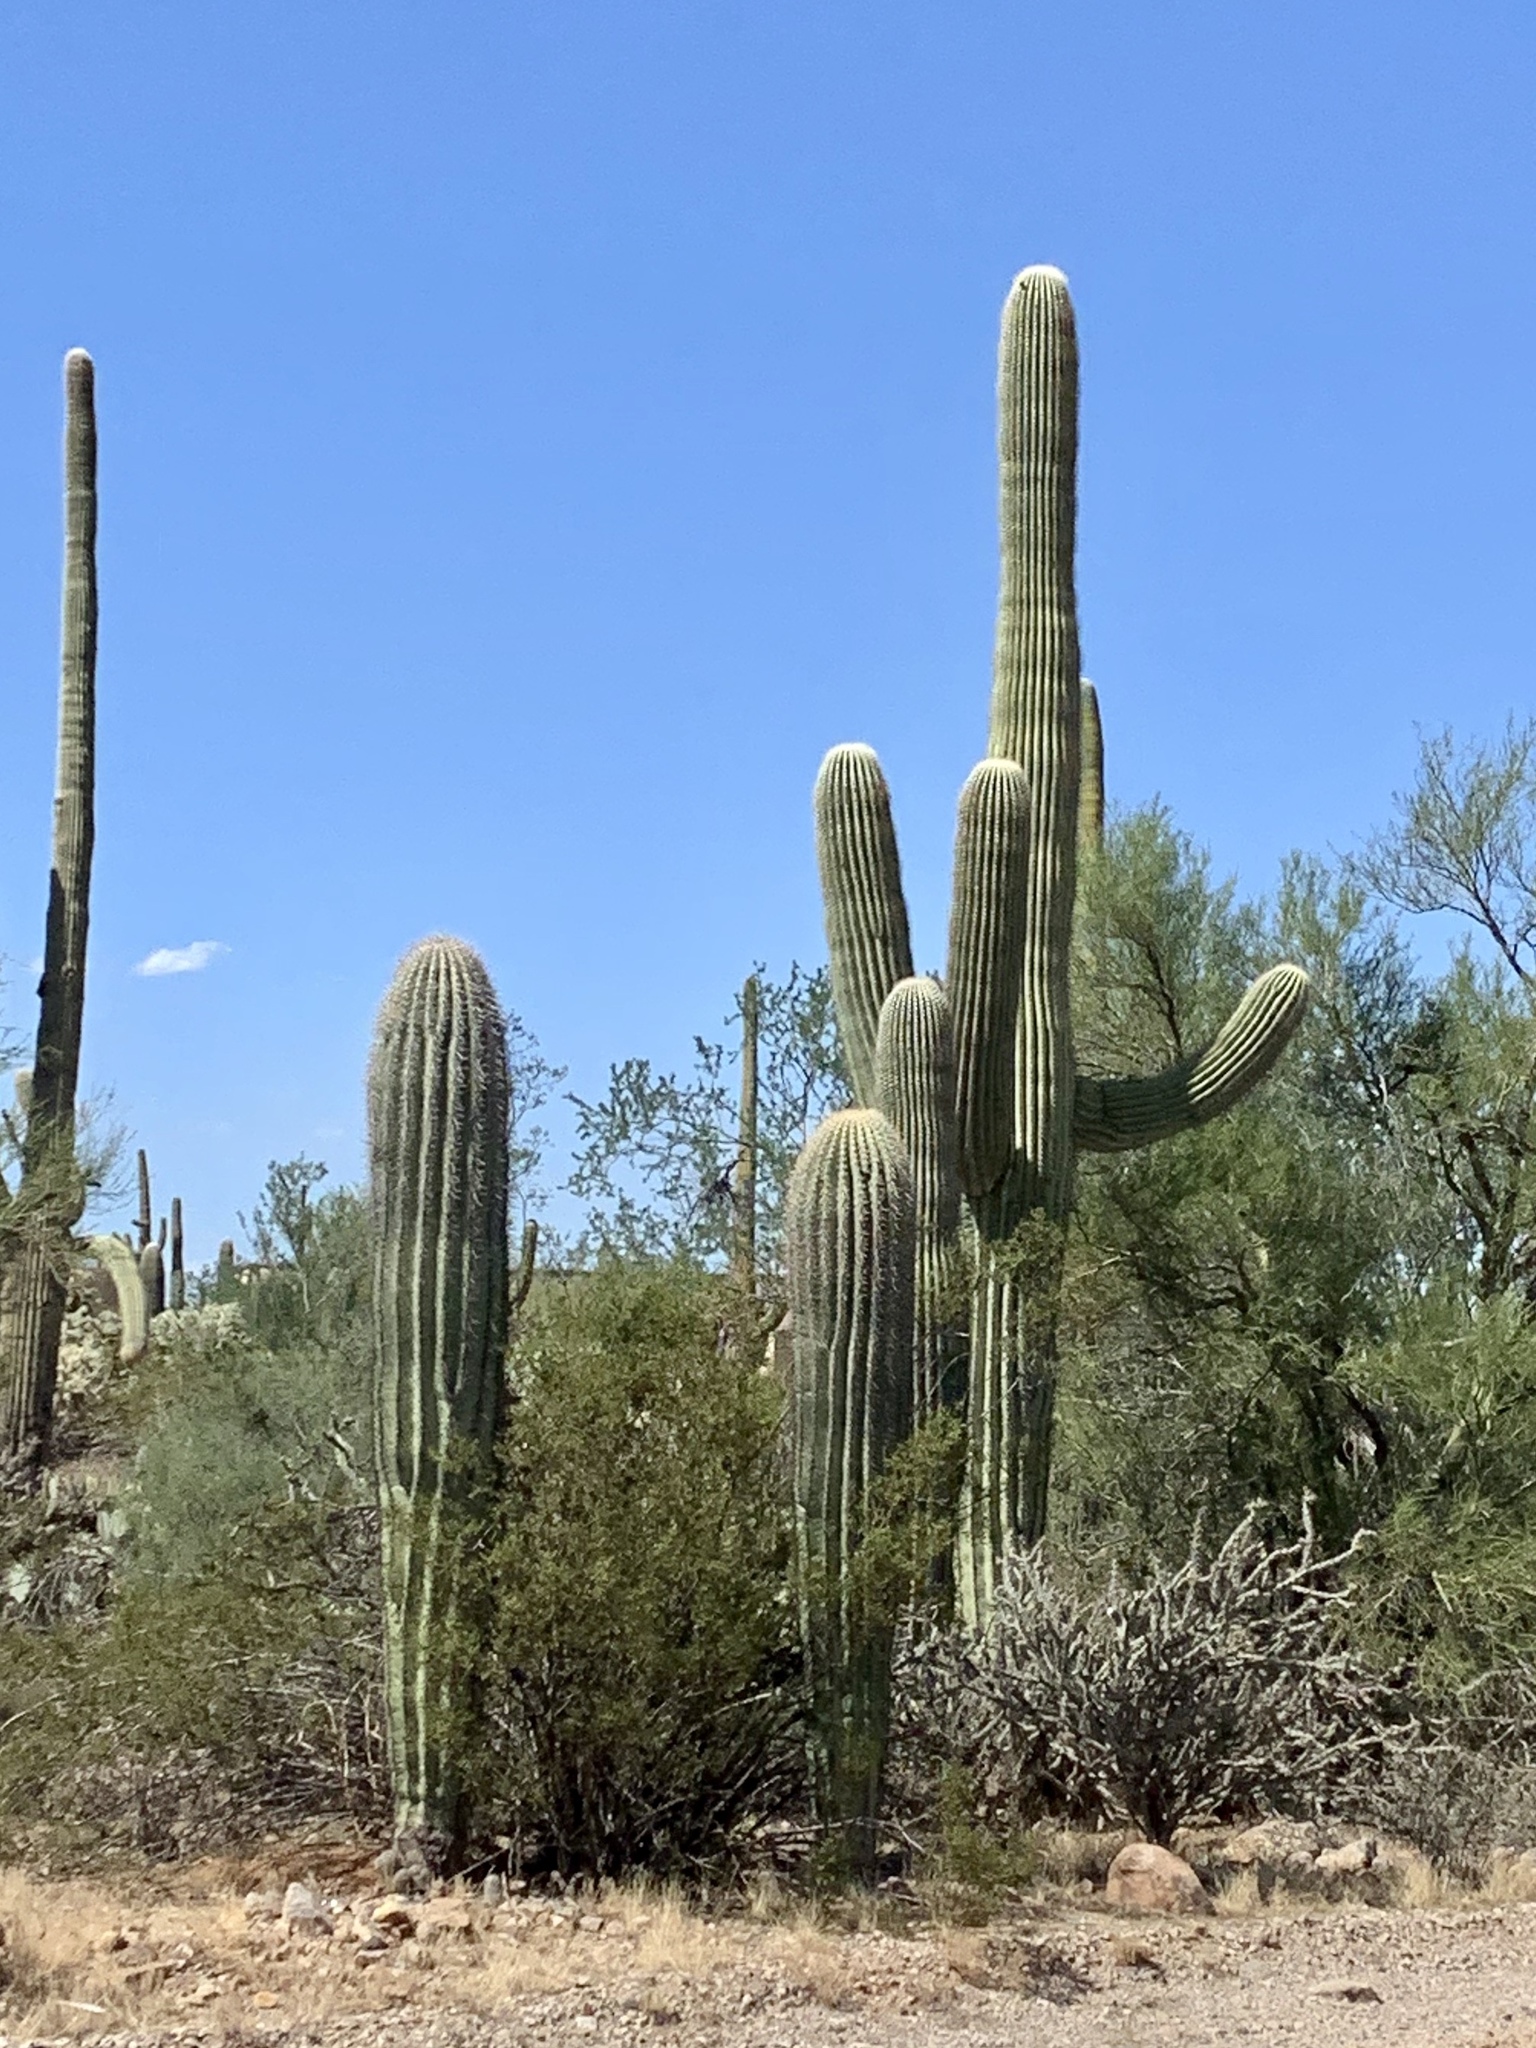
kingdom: Plantae
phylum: Tracheophyta
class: Magnoliopsida
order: Caryophyllales
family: Cactaceae
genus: Carnegiea
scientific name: Carnegiea gigantea
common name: Saguaro
